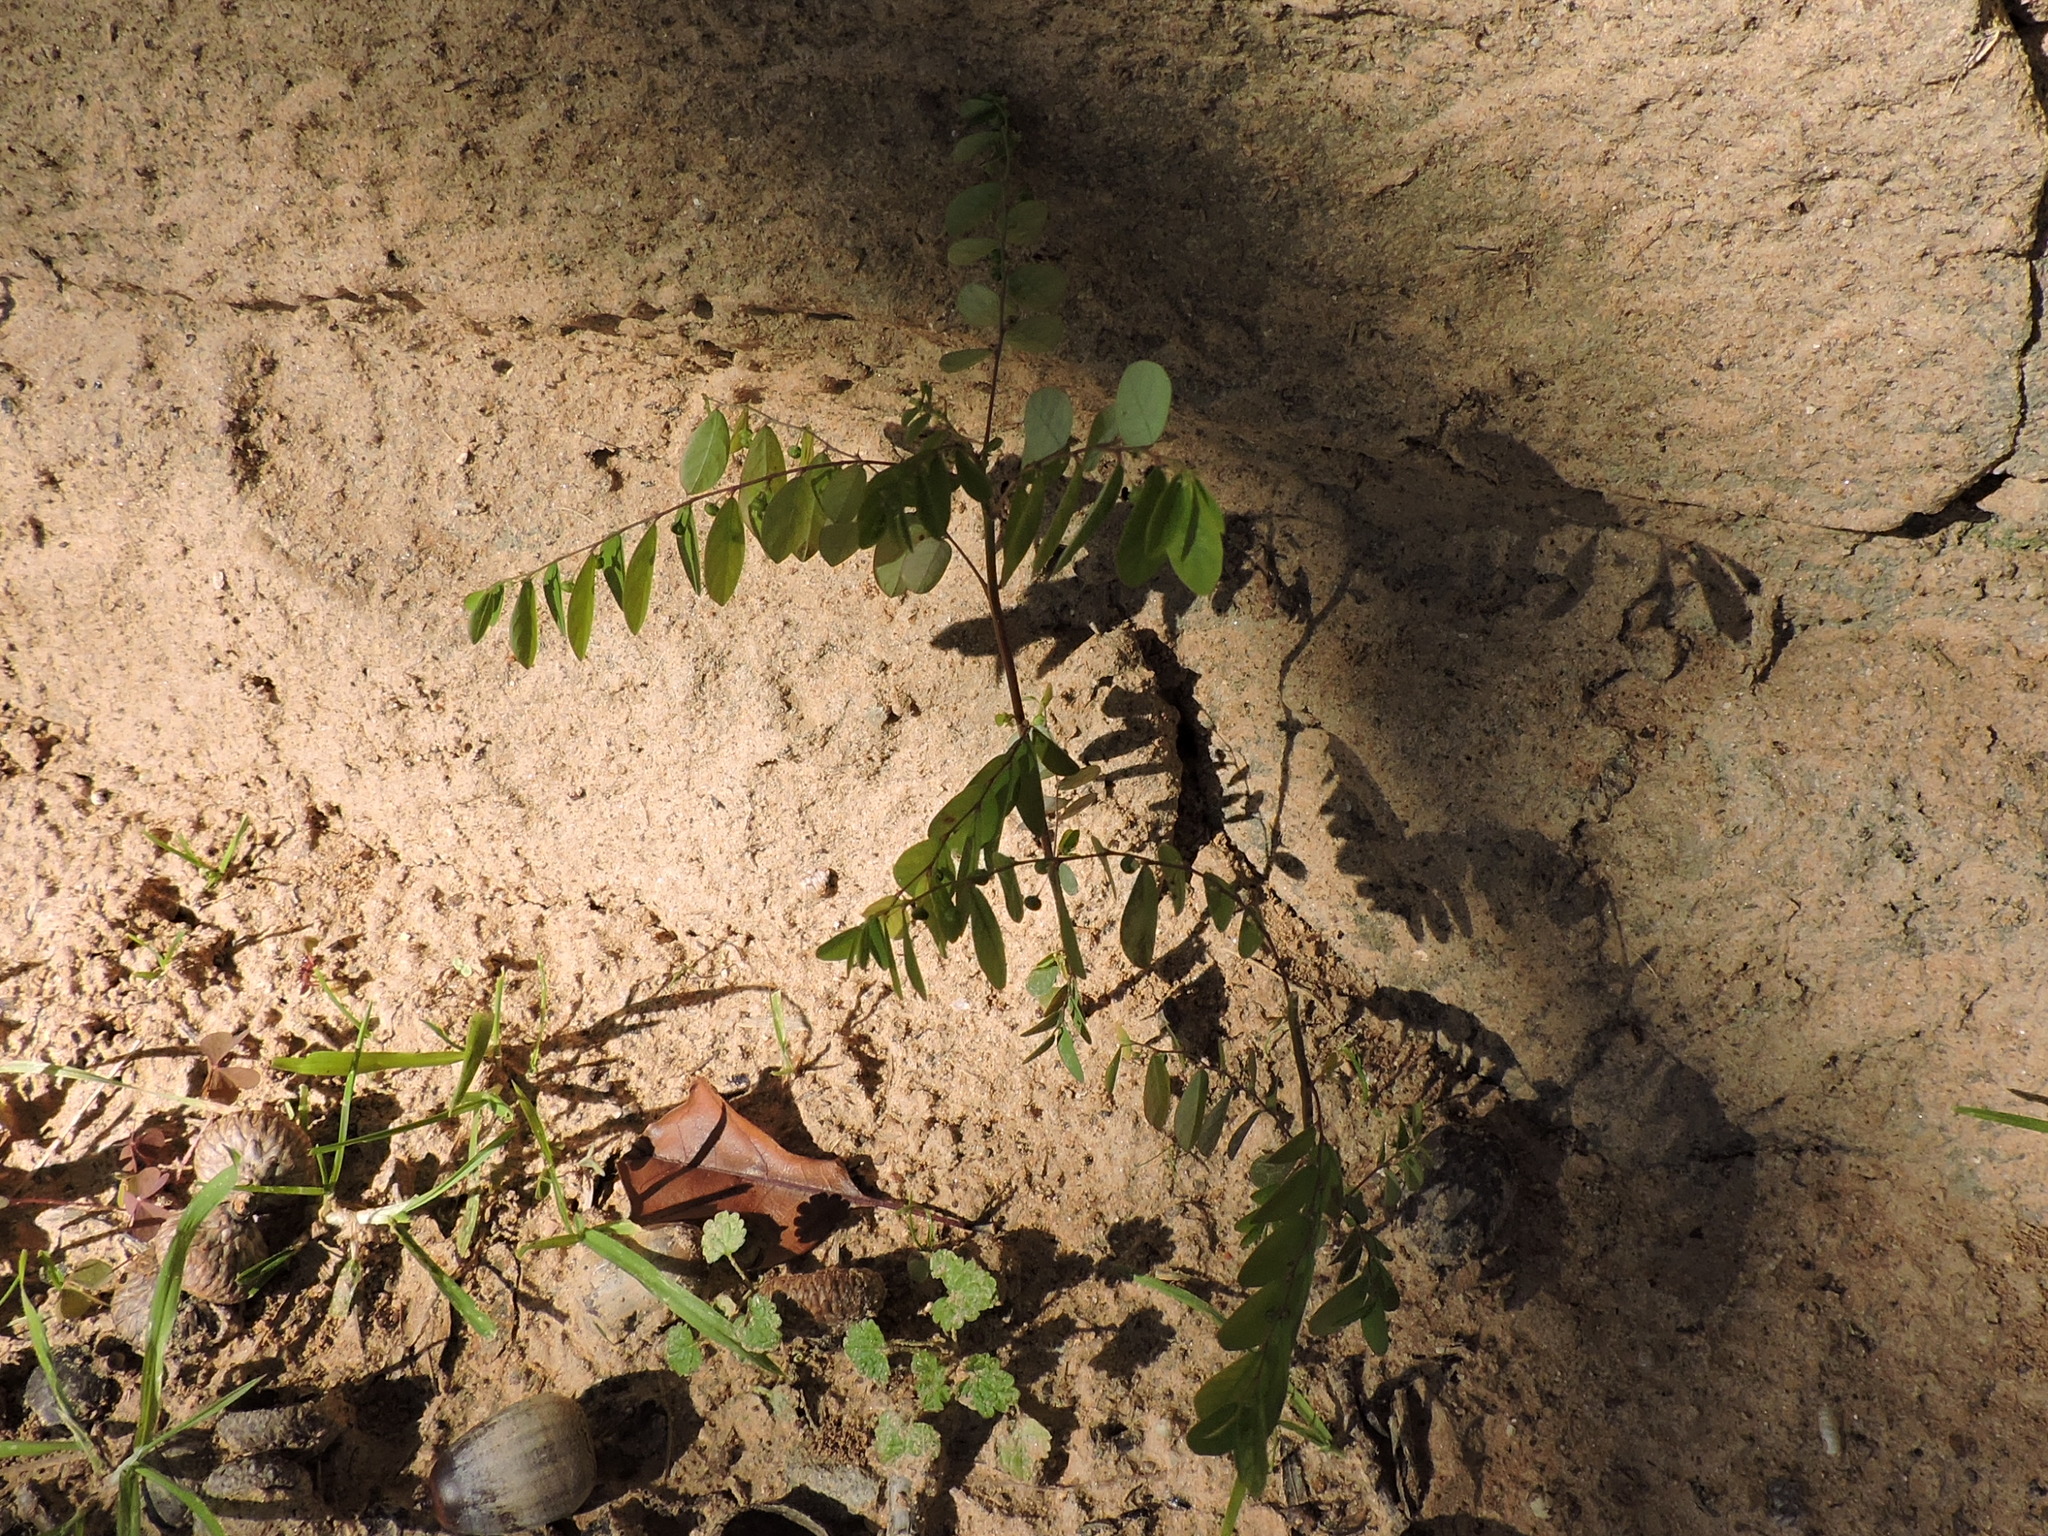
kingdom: Plantae
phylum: Tracheophyta
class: Magnoliopsida
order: Malpighiales
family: Phyllanthaceae
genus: Phyllanthus
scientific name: Phyllanthus tenellus
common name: Mascarene island leaf-flower
